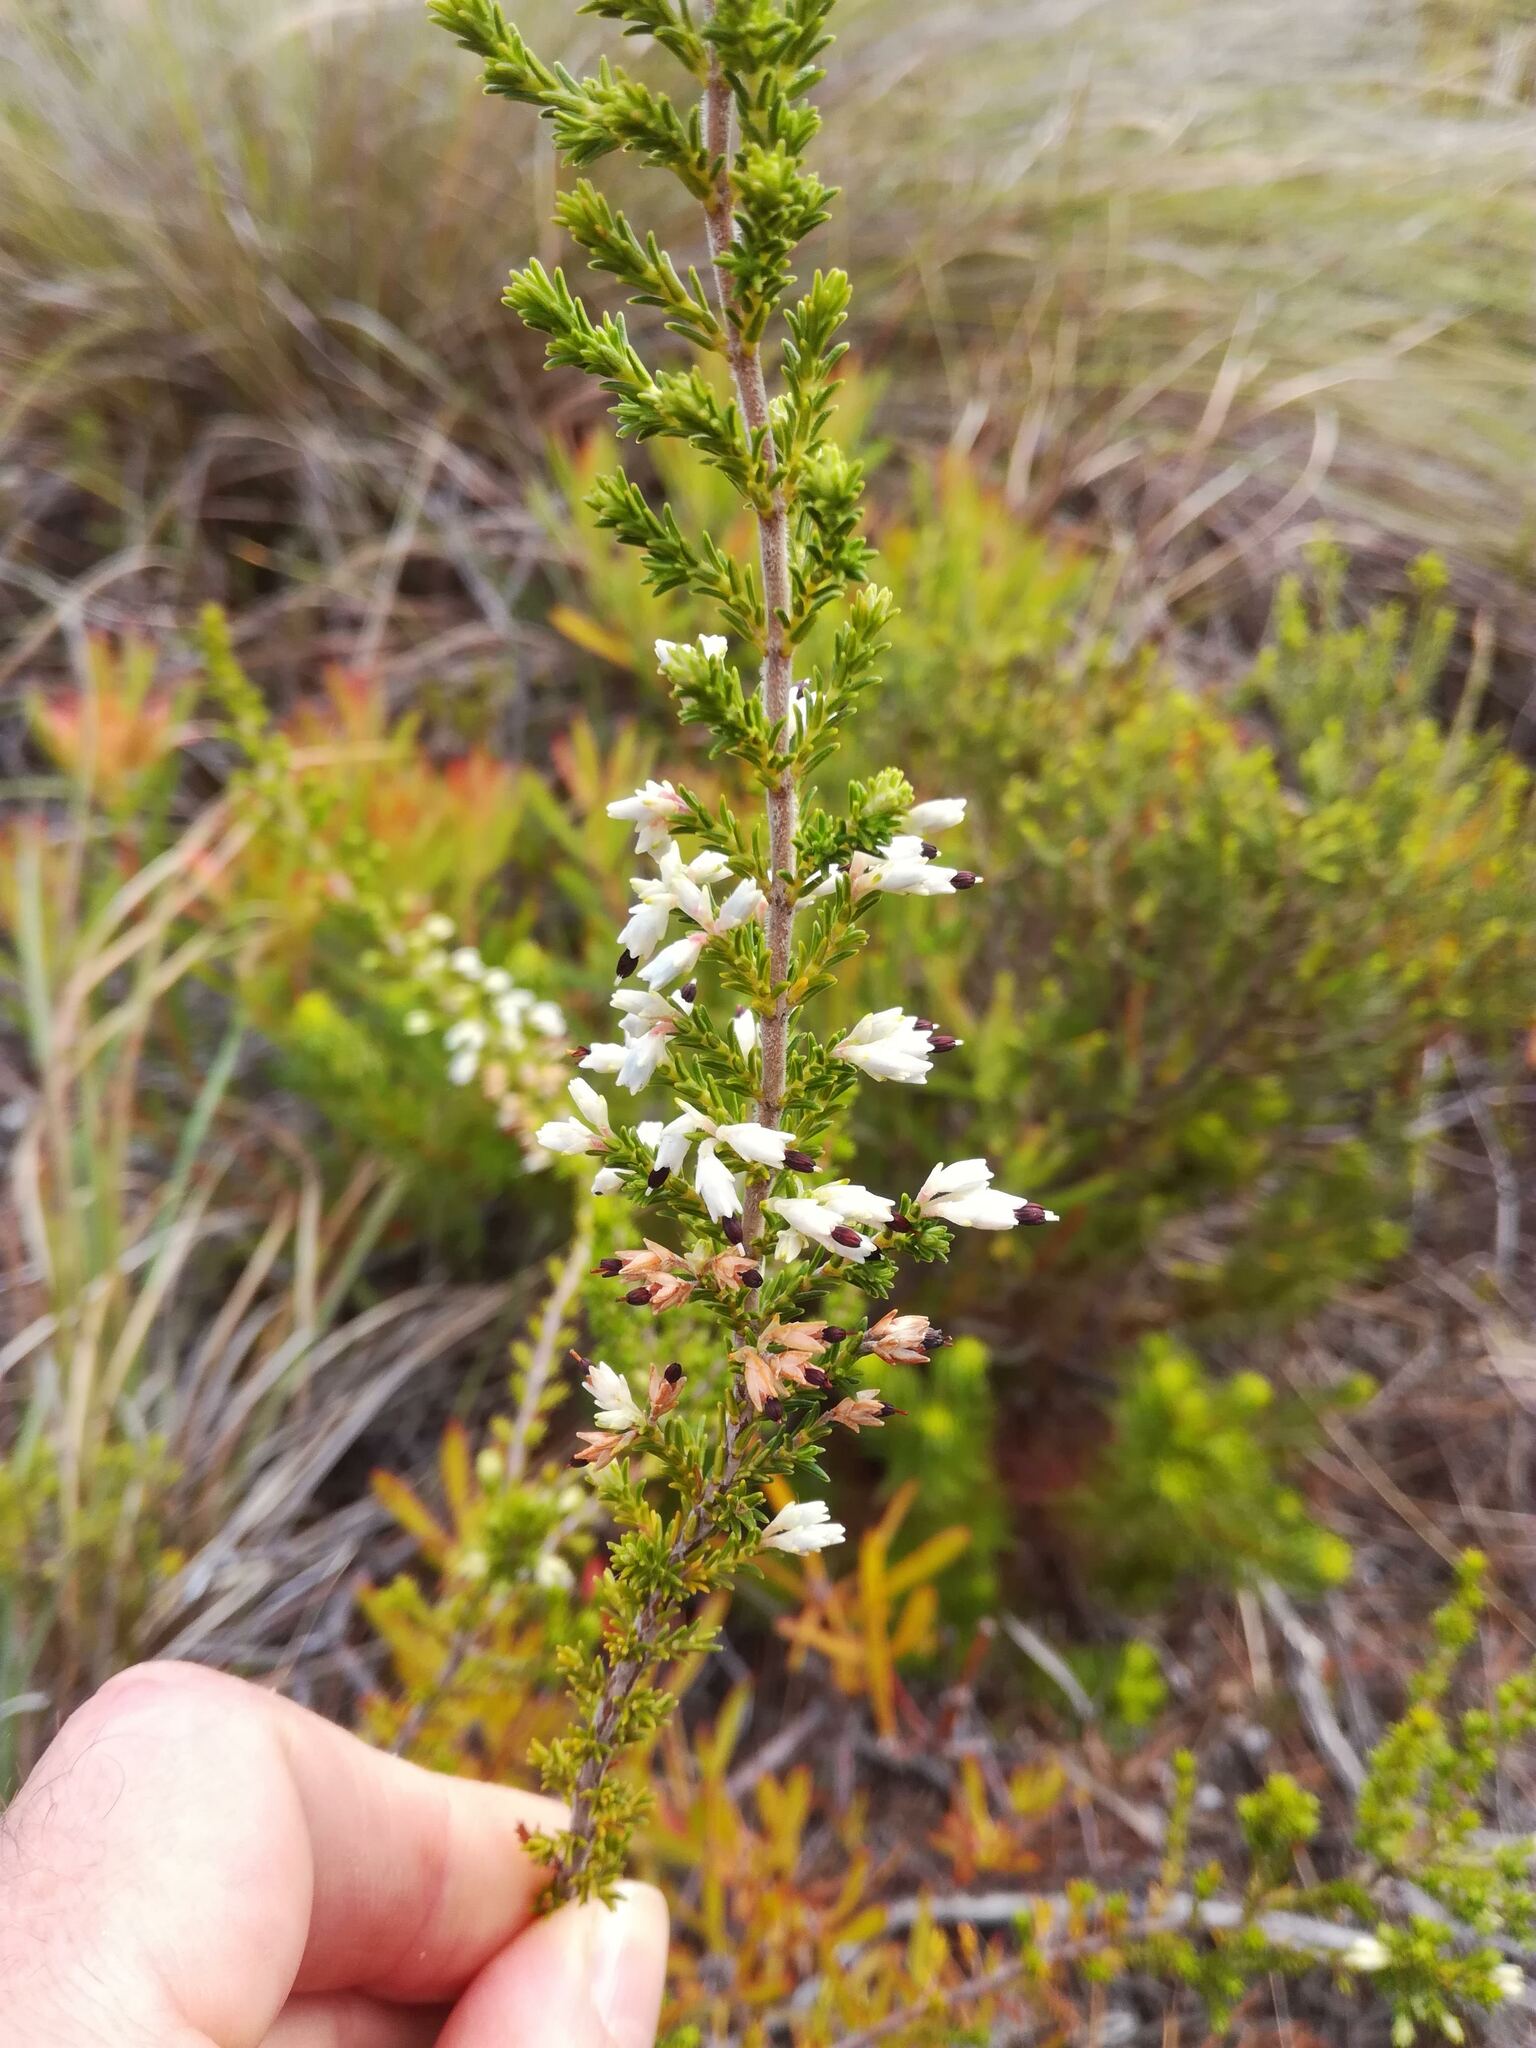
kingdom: Plantae
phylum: Tracheophyta
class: Magnoliopsida
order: Ericales
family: Ericaceae
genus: Erica
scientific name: Erica imbricata
